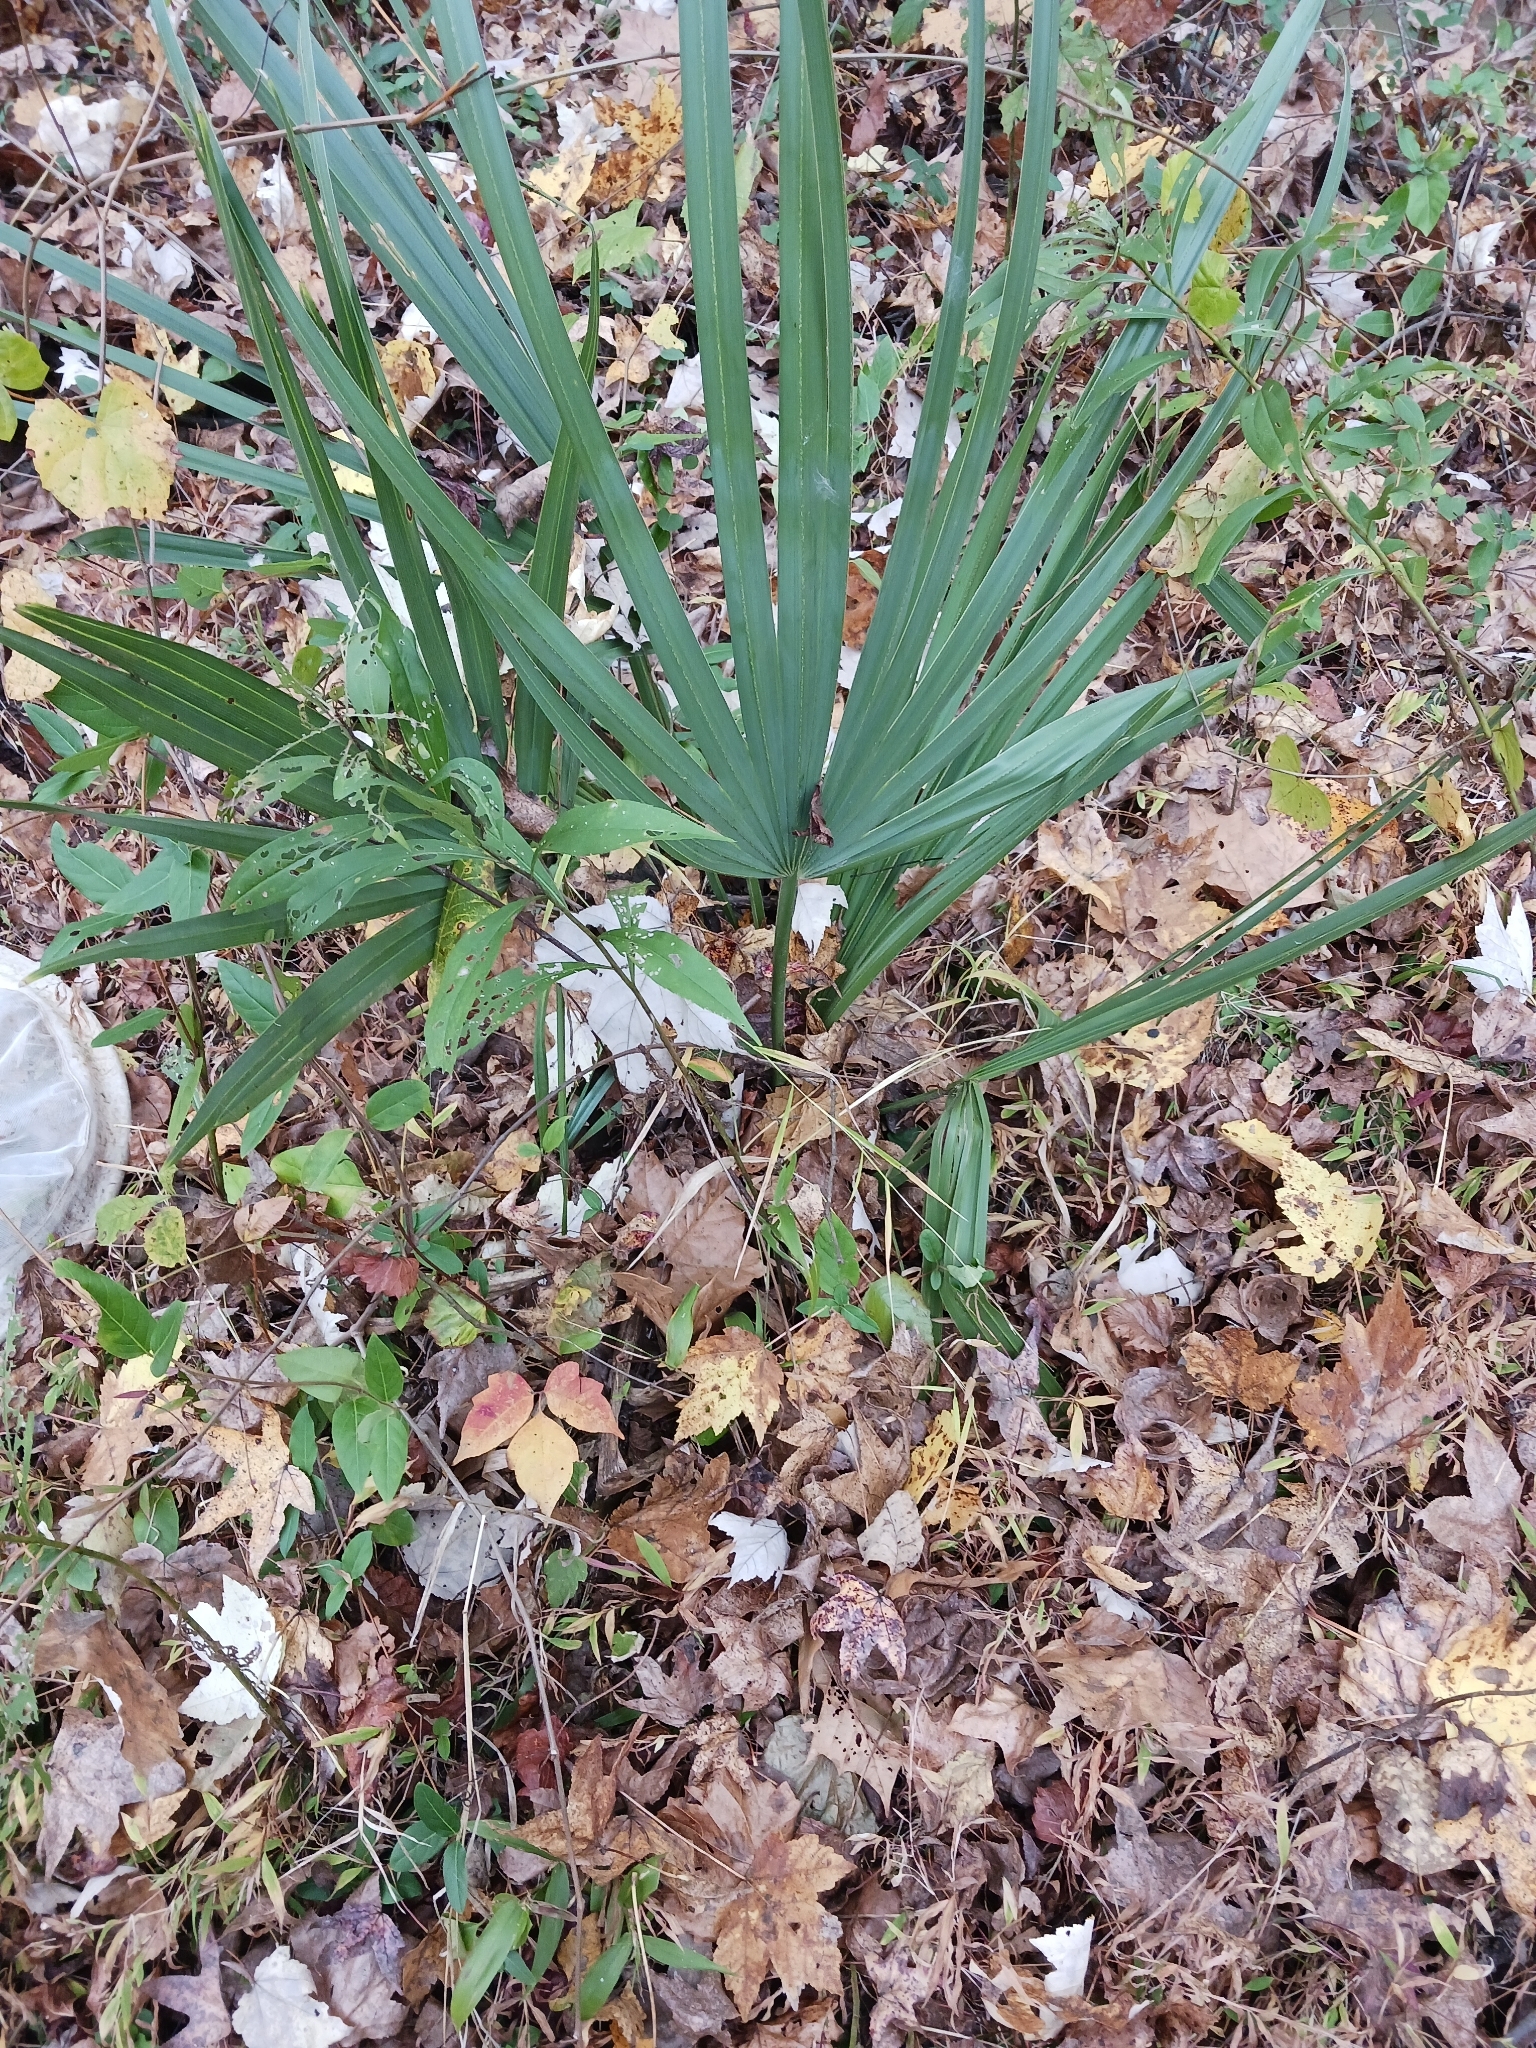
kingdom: Plantae
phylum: Tracheophyta
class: Liliopsida
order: Arecales
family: Arecaceae
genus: Sabal
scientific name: Sabal minor
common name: Dwarf palmetto
